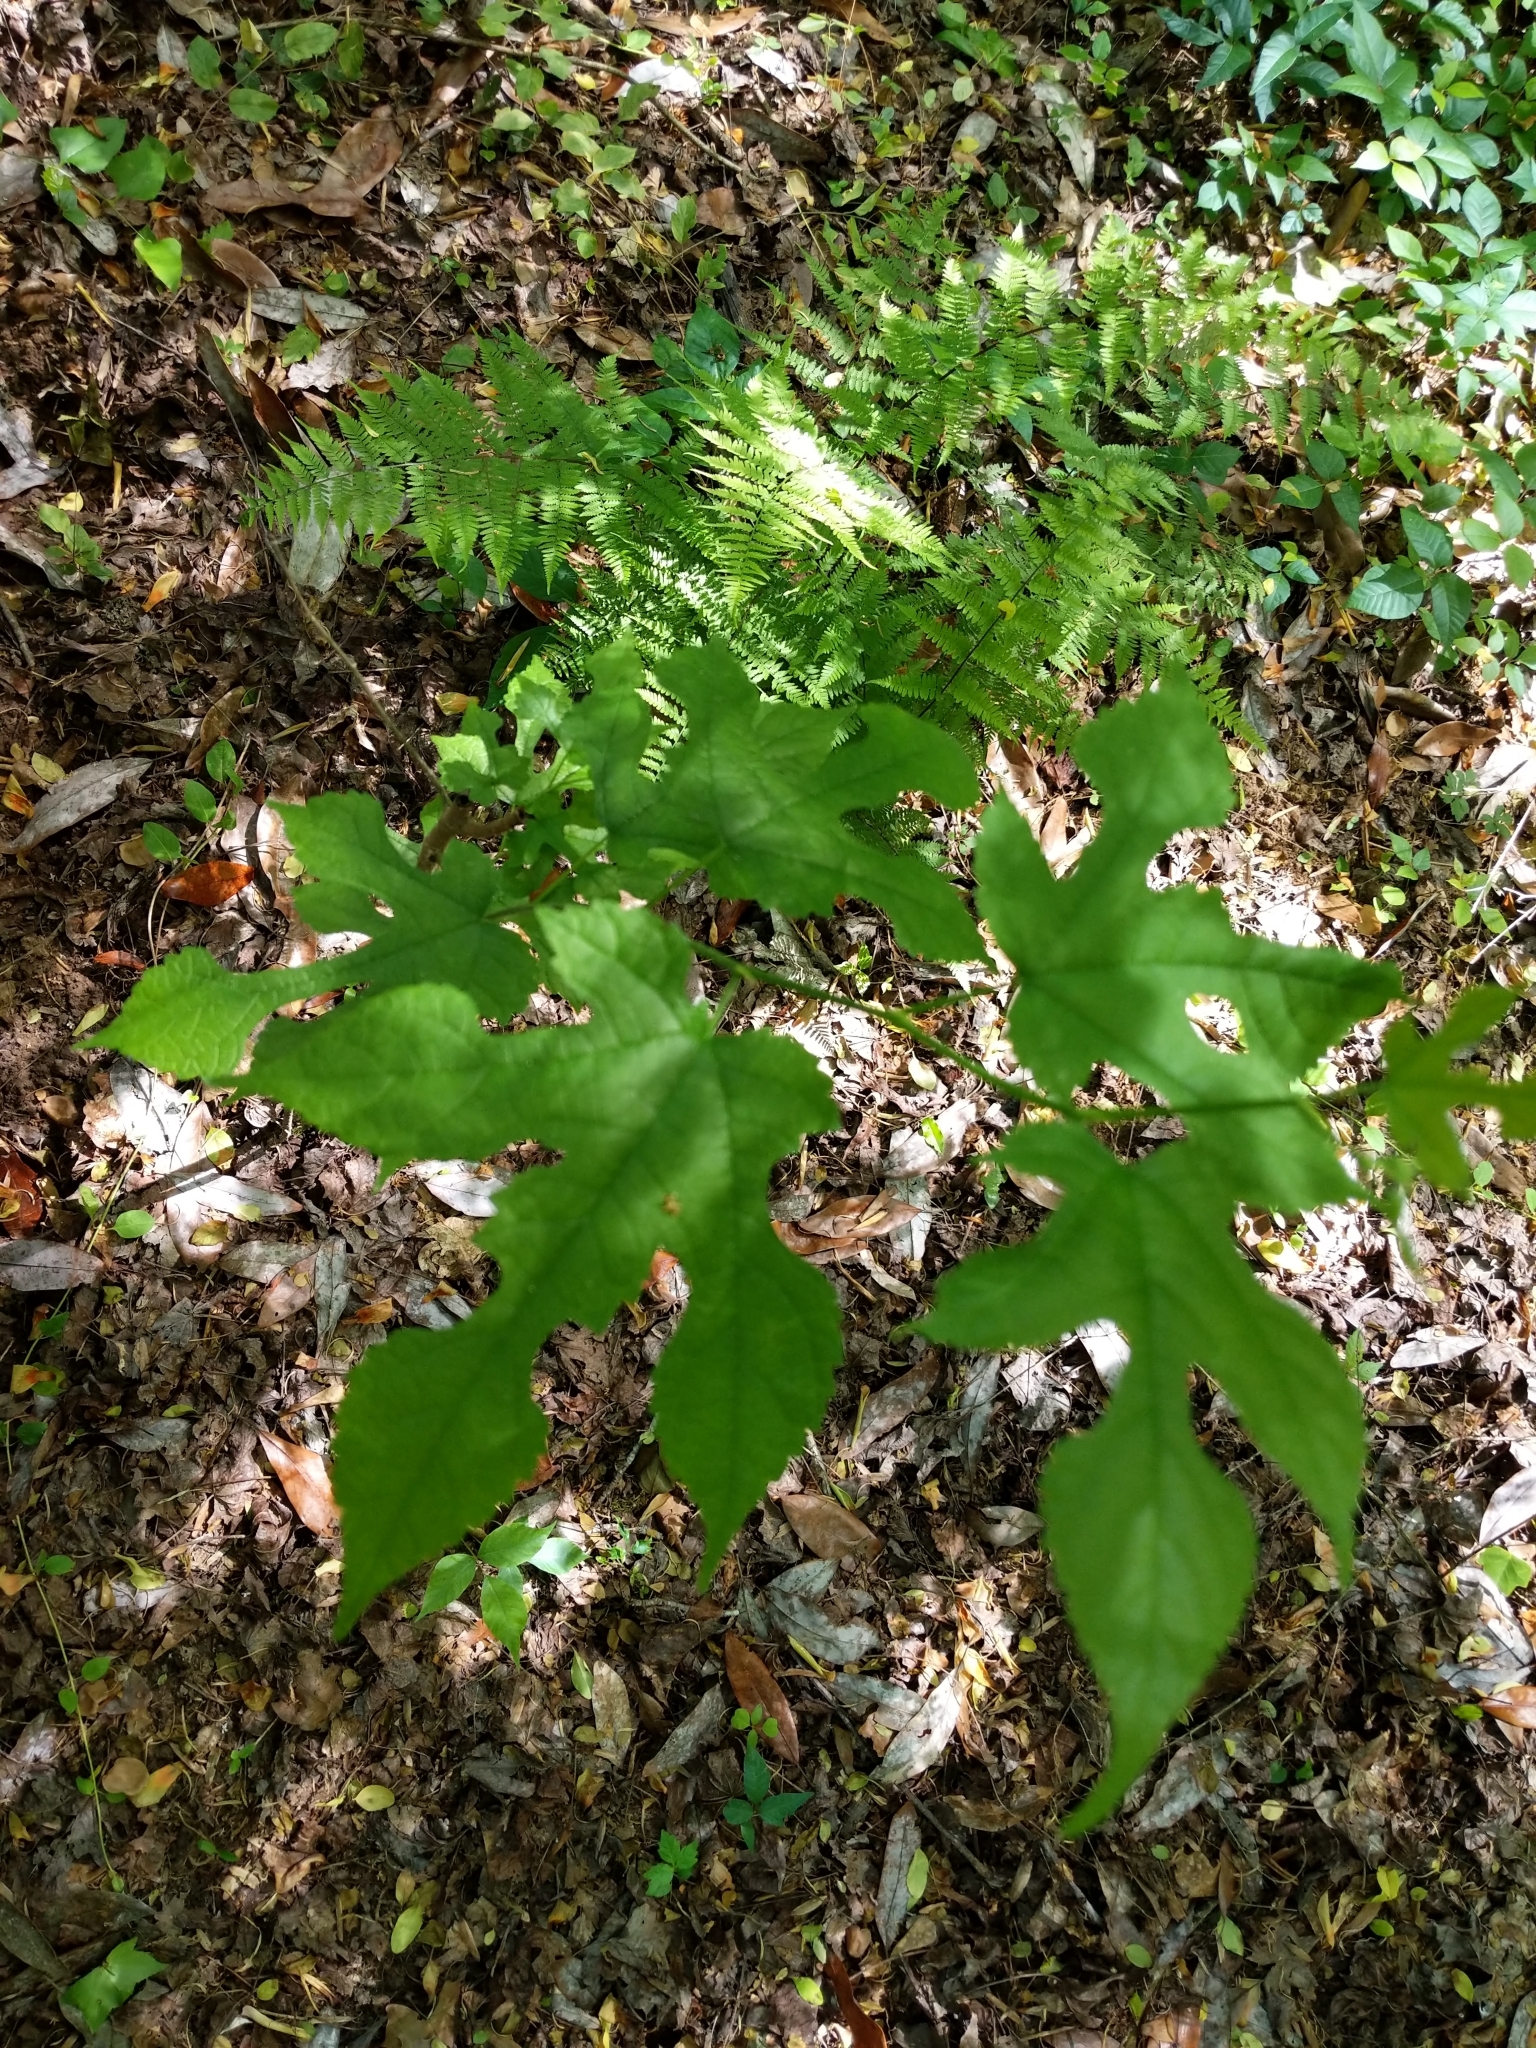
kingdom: Plantae
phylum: Tracheophyta
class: Magnoliopsida
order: Rosales
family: Moraceae
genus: Morus
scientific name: Morus rubra
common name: Red mulberry
